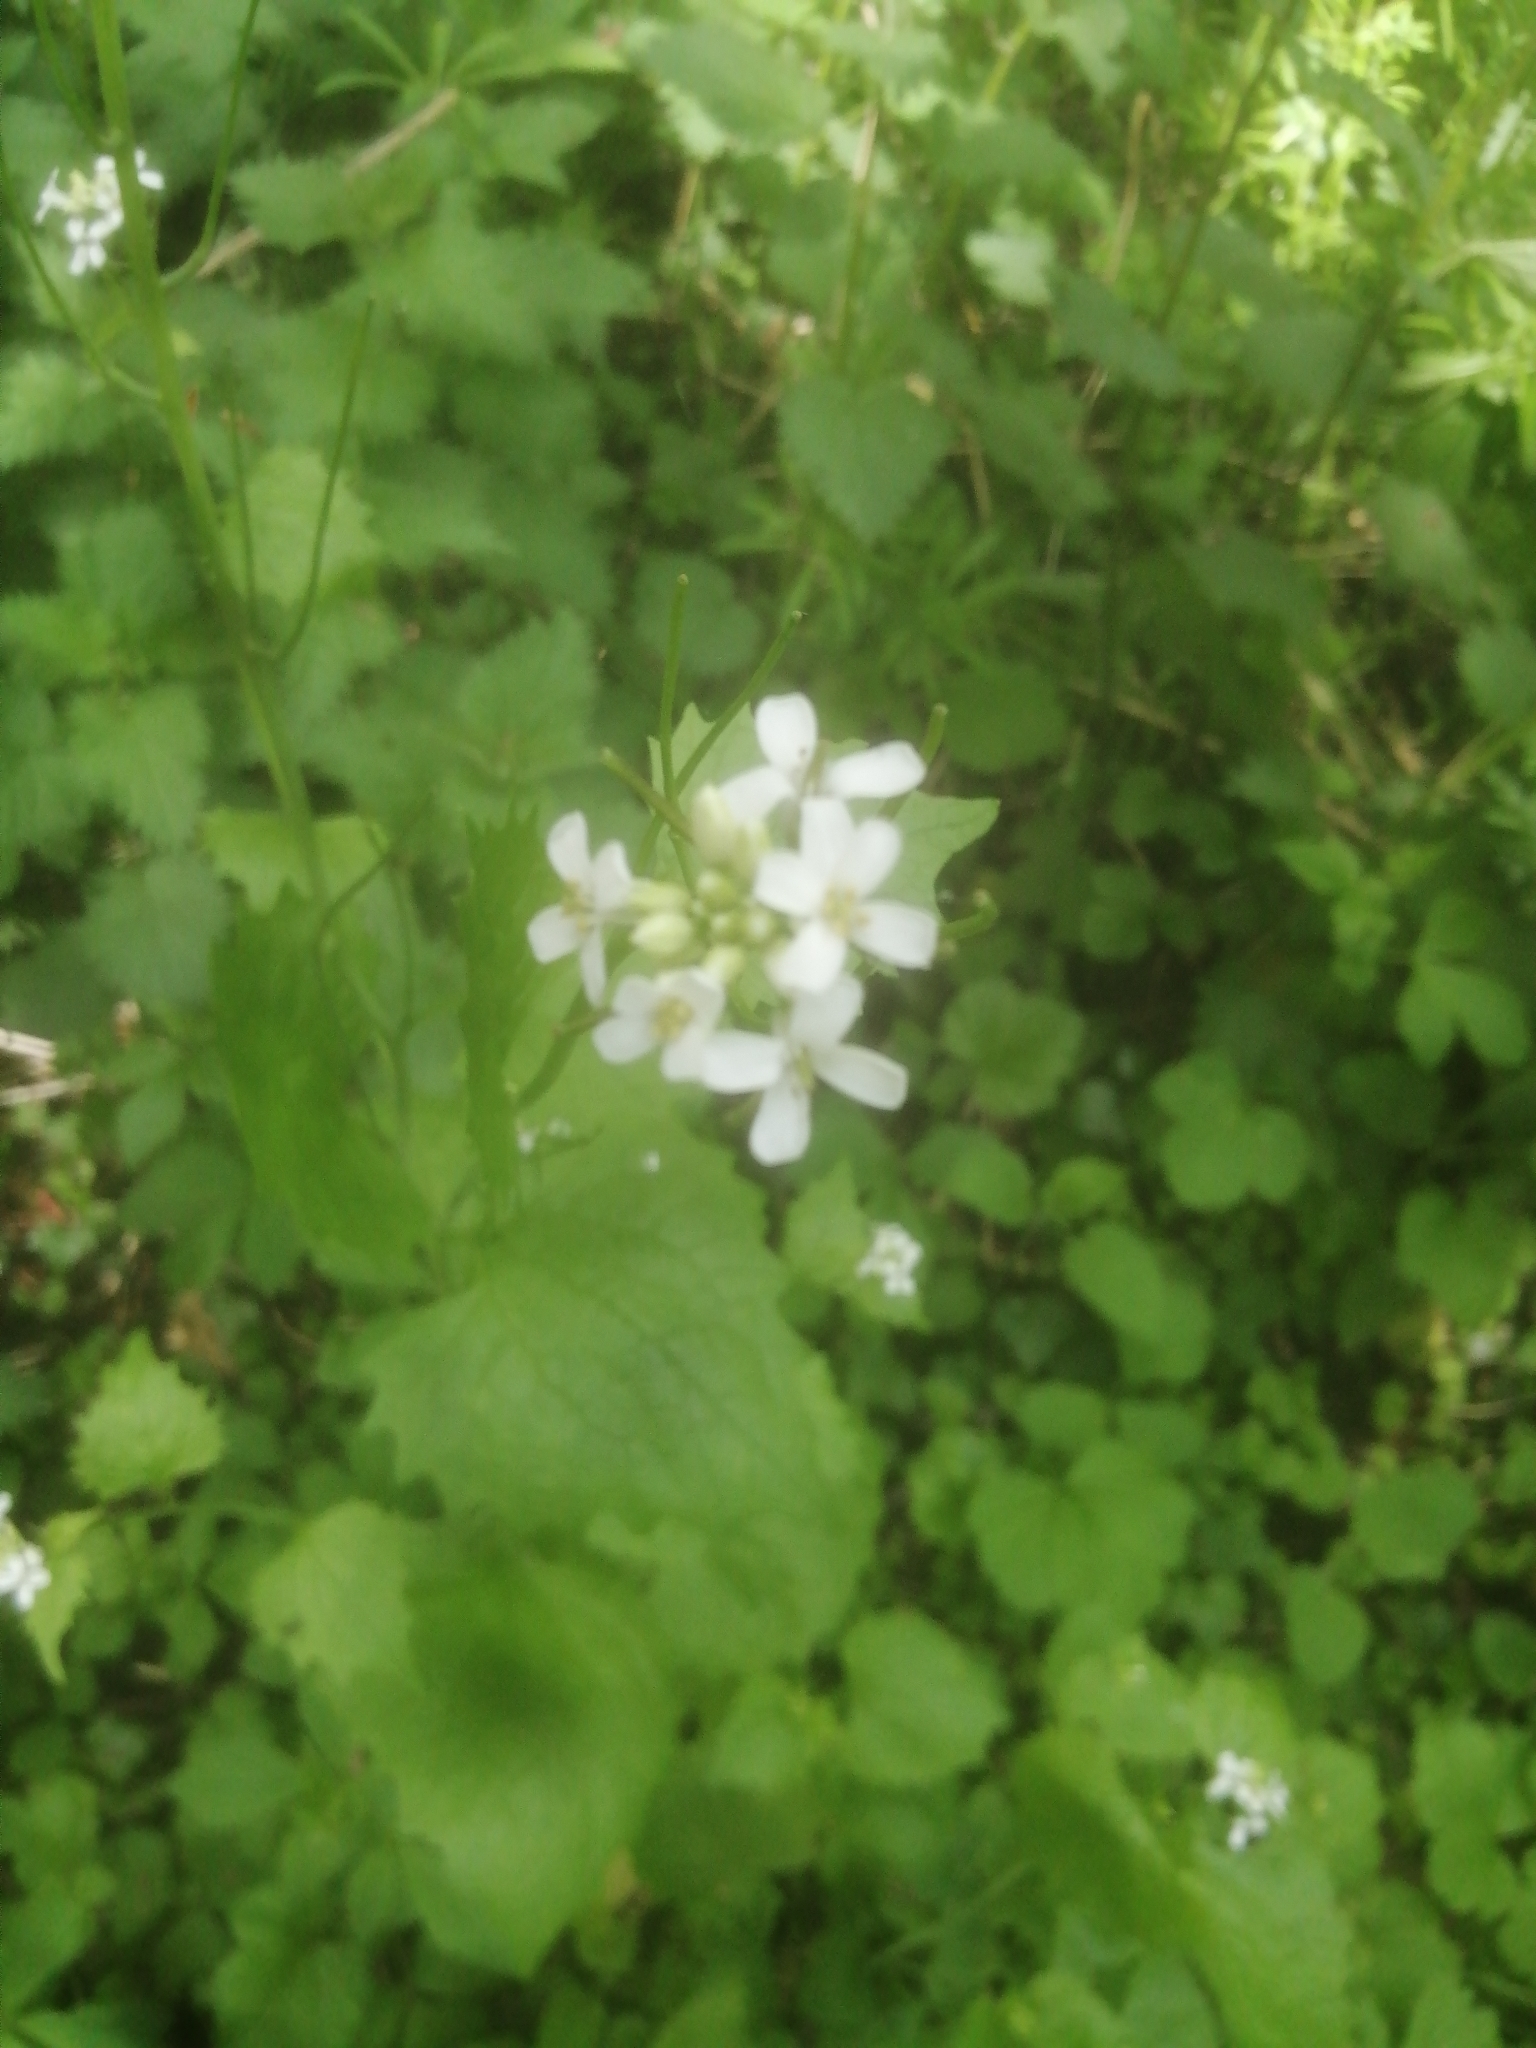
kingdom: Plantae
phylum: Tracheophyta
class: Magnoliopsida
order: Brassicales
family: Brassicaceae
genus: Alliaria
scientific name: Alliaria petiolata
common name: Garlic mustard
